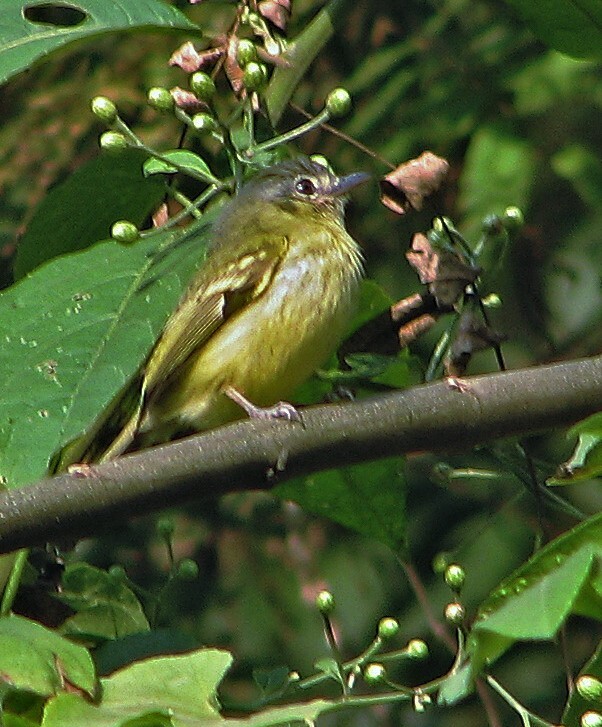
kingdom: Animalia
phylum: Chordata
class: Aves
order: Passeriformes
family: Tyrannidae
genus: Tolmomyias
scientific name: Tolmomyias sulphurescens
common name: Yellow-olive flycatcher
